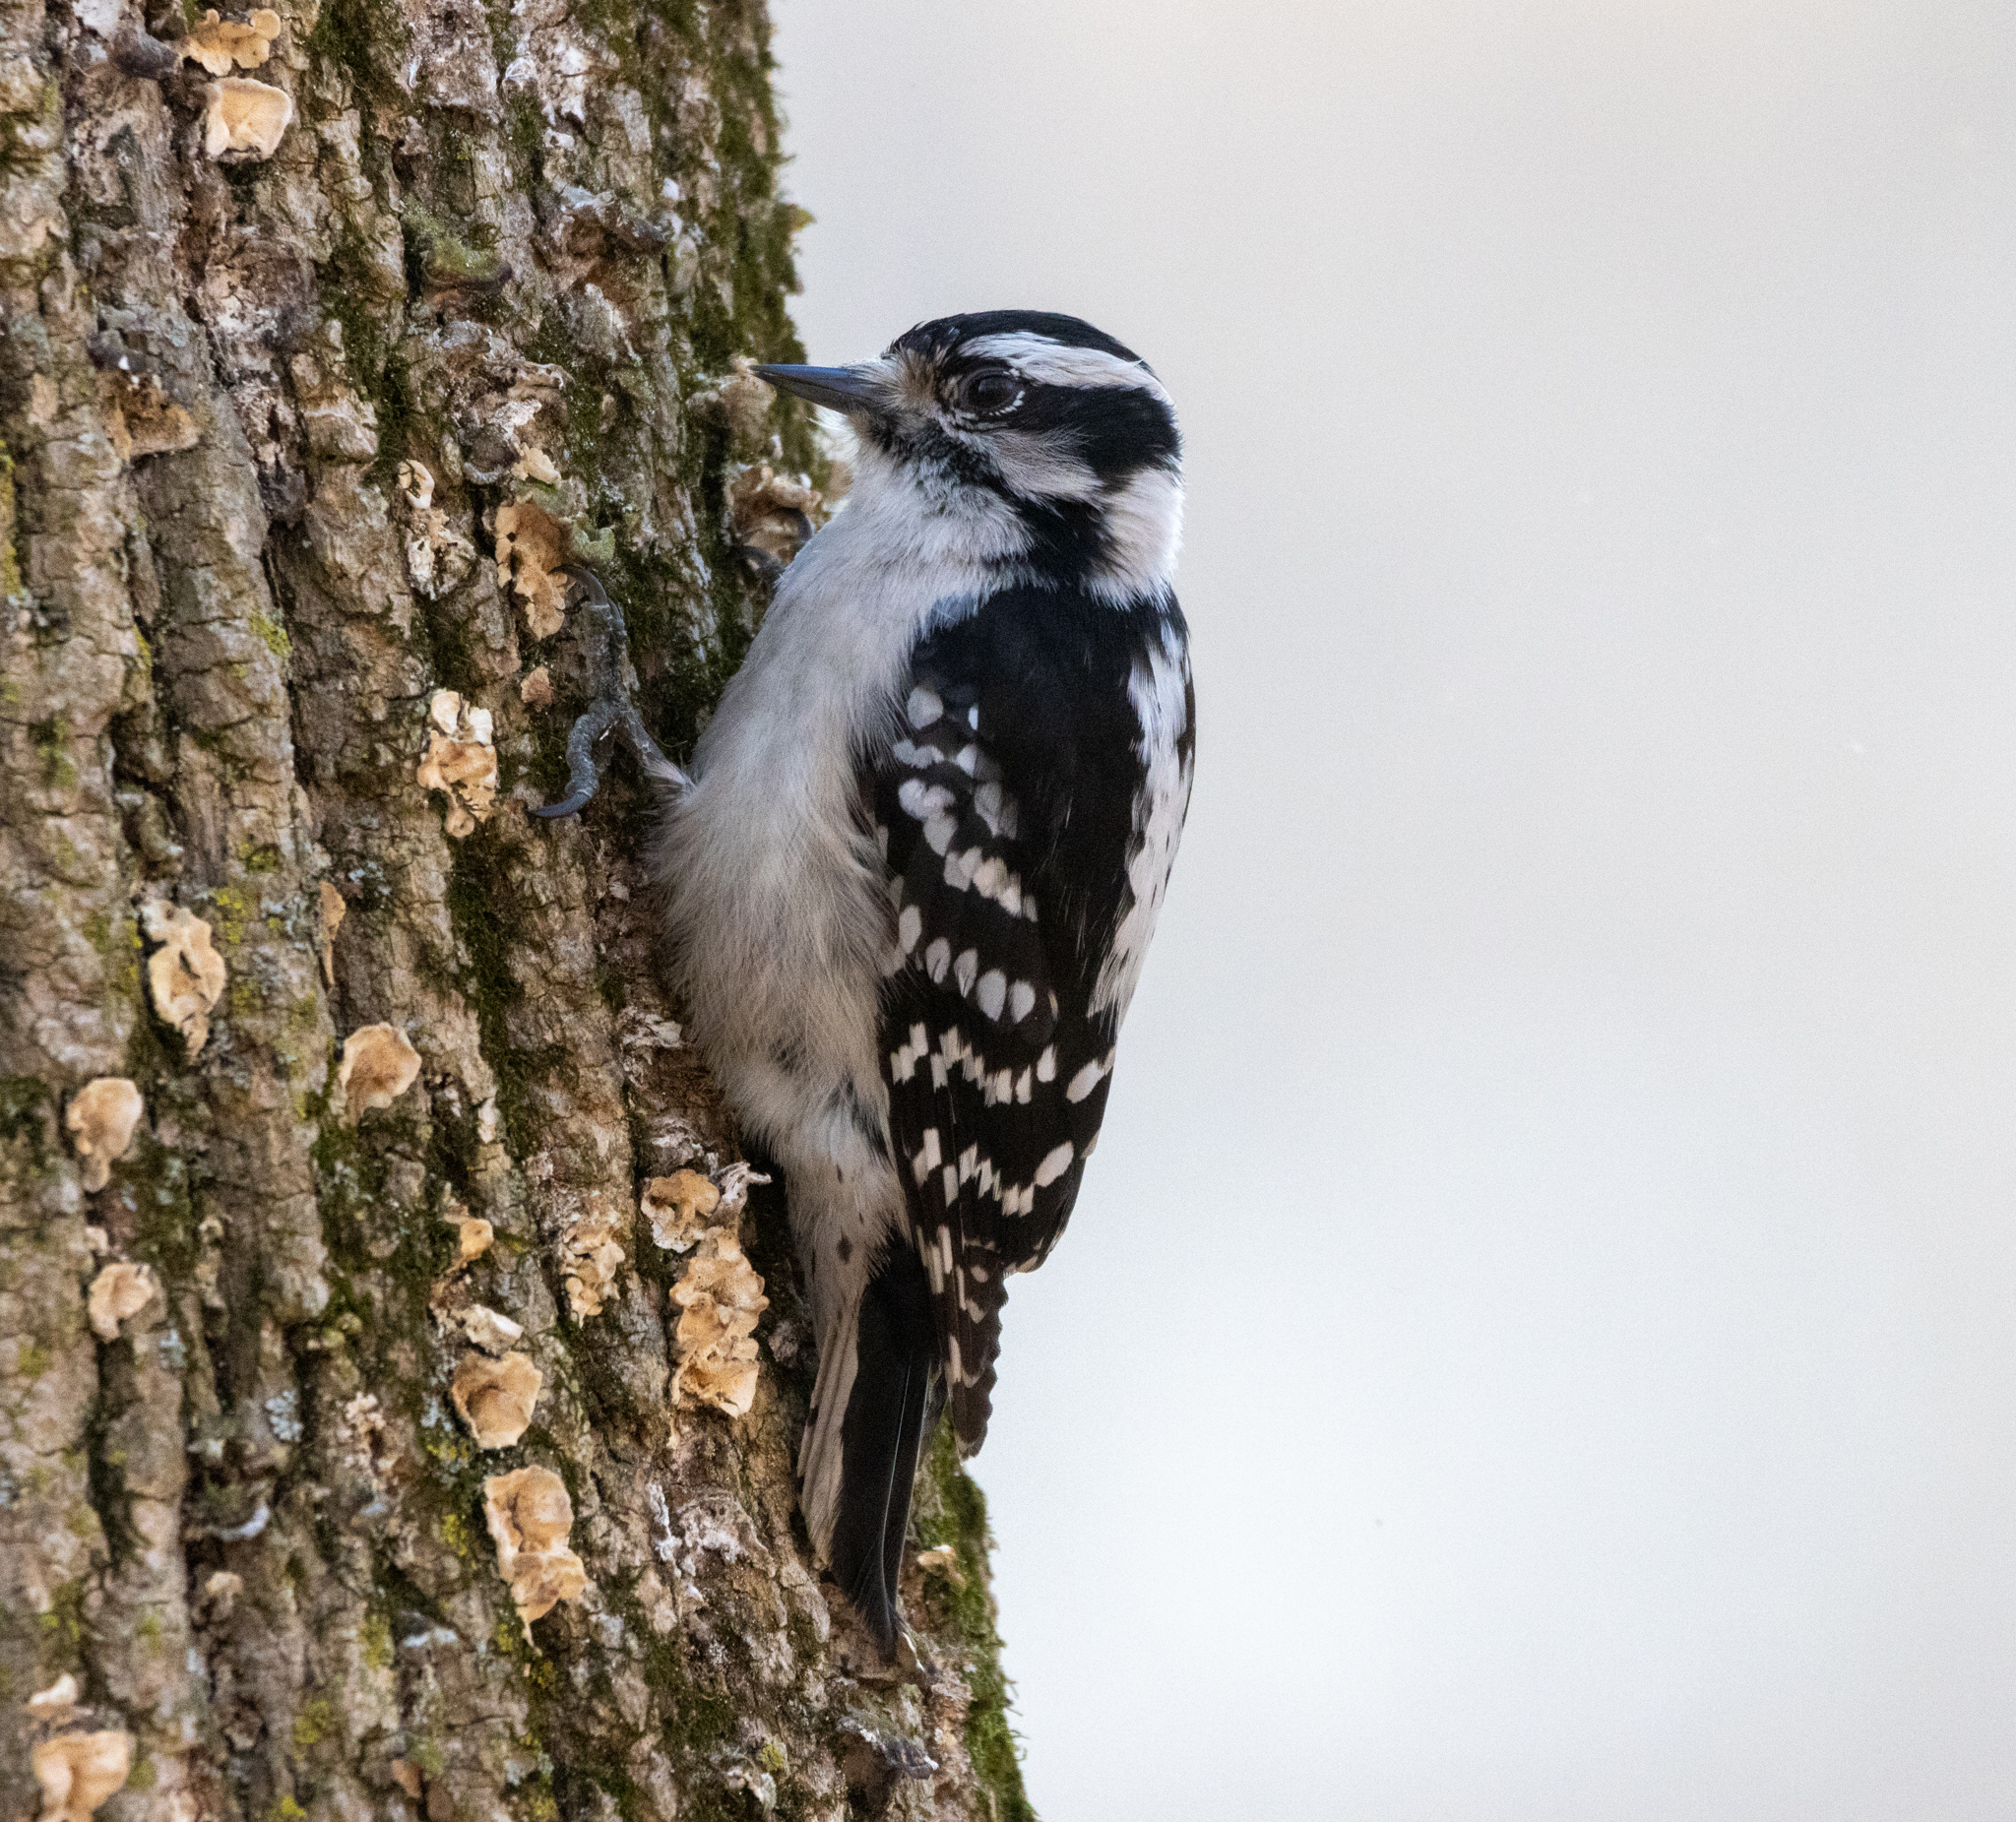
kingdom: Animalia
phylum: Chordata
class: Aves
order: Piciformes
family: Picidae
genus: Dryobates
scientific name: Dryobates pubescens
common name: Downy woodpecker
